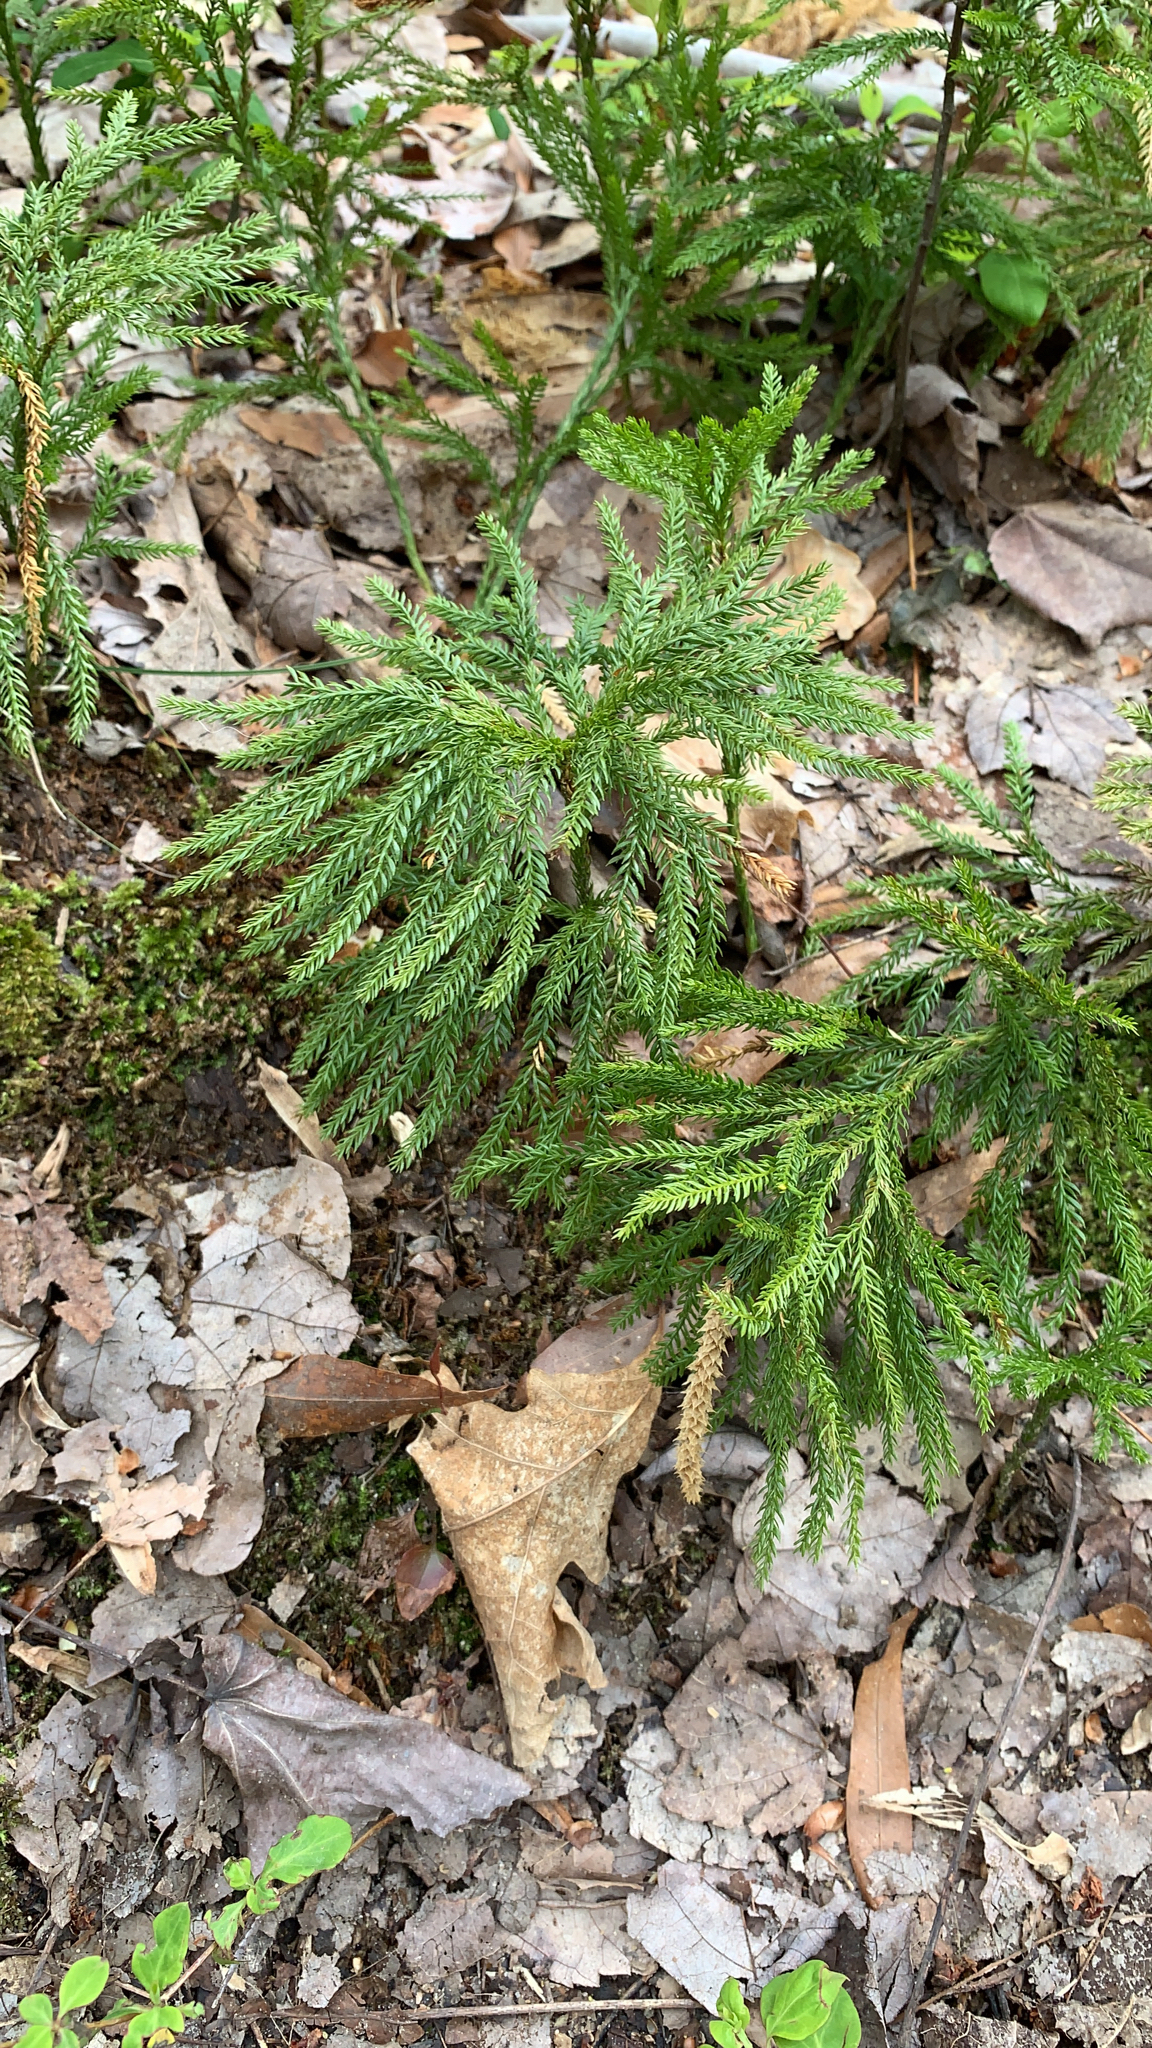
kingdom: Plantae
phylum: Tracheophyta
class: Lycopodiopsida
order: Lycopodiales
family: Lycopodiaceae
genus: Dendrolycopodium
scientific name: Dendrolycopodium obscurum
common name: Common ground-pine
